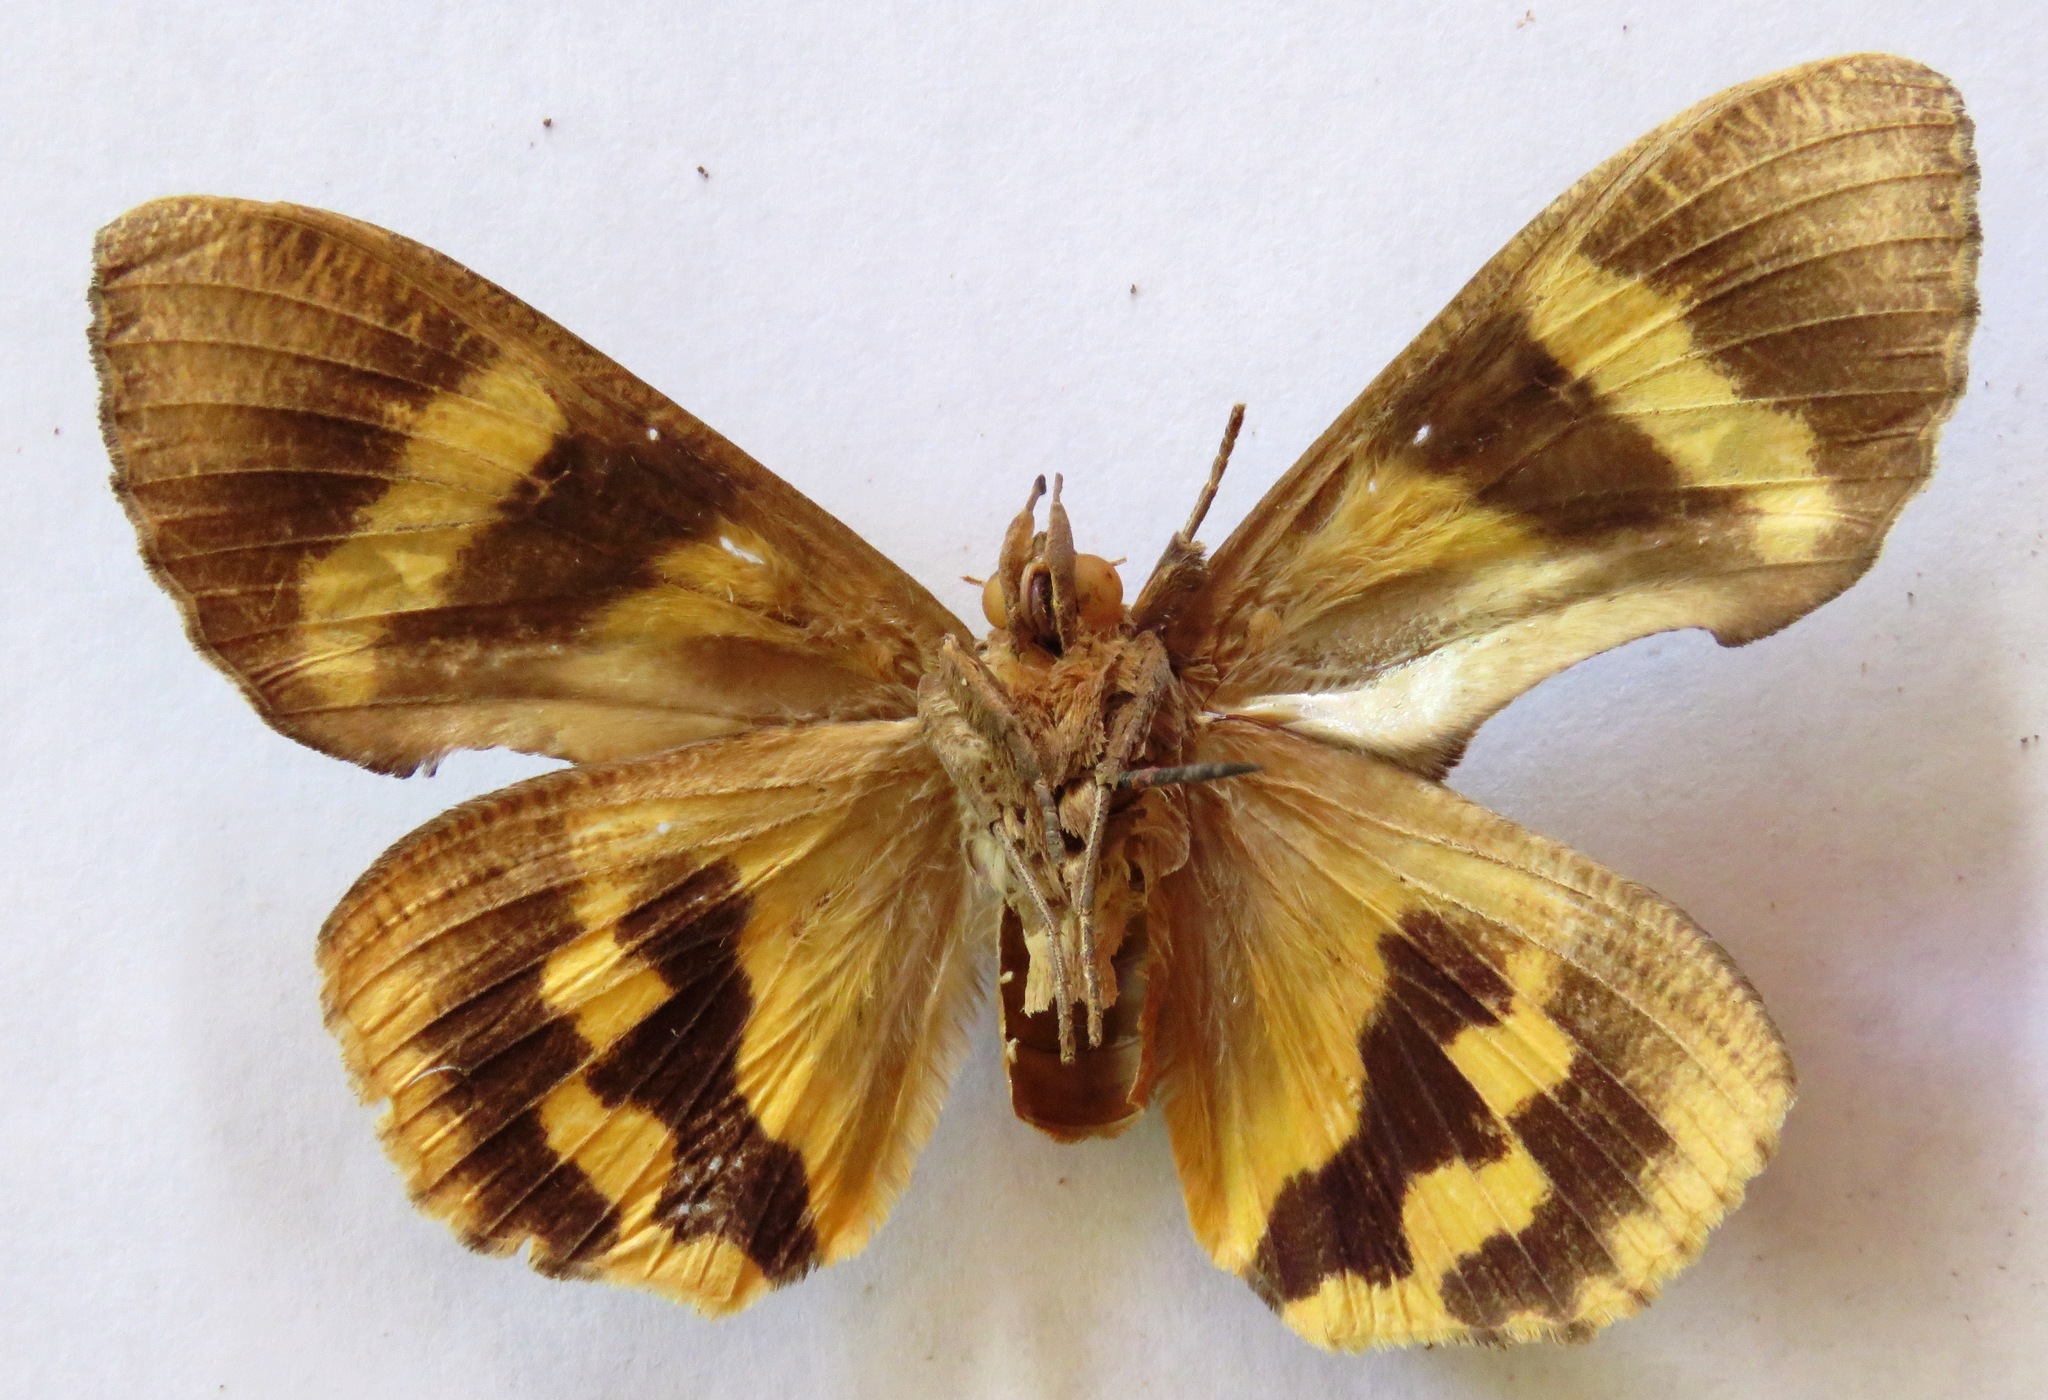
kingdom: Animalia
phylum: Arthropoda
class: Insecta
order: Lepidoptera
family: Erebidae
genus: Eudocima
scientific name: Eudocima procus
